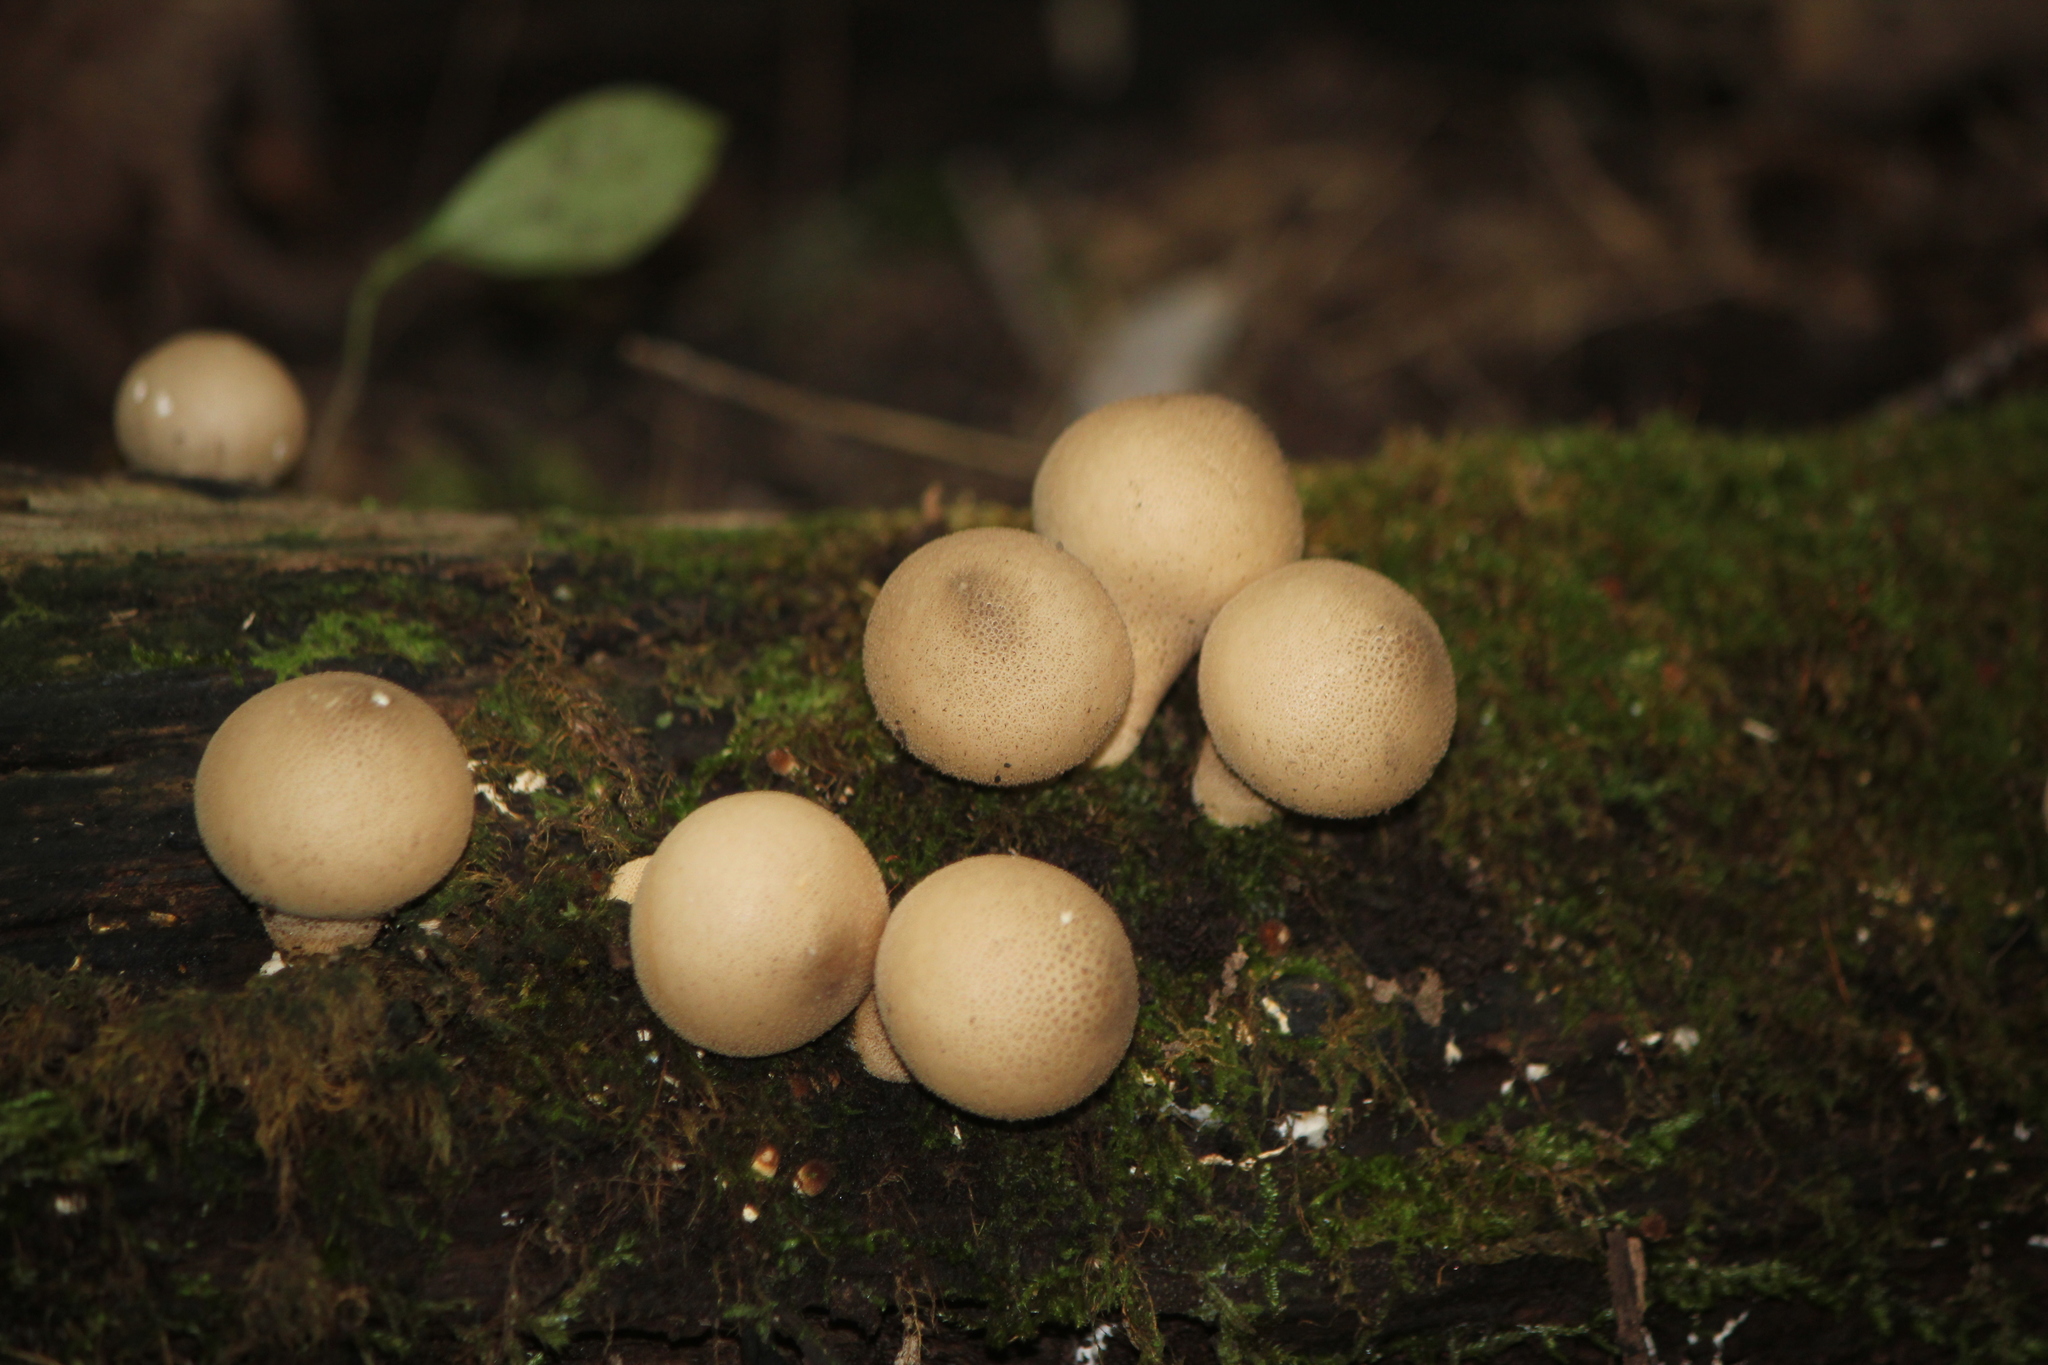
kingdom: Fungi
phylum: Basidiomycota
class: Agaricomycetes
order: Agaricales
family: Lycoperdaceae
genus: Apioperdon
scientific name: Apioperdon pyriforme
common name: Pear-shaped puffball
